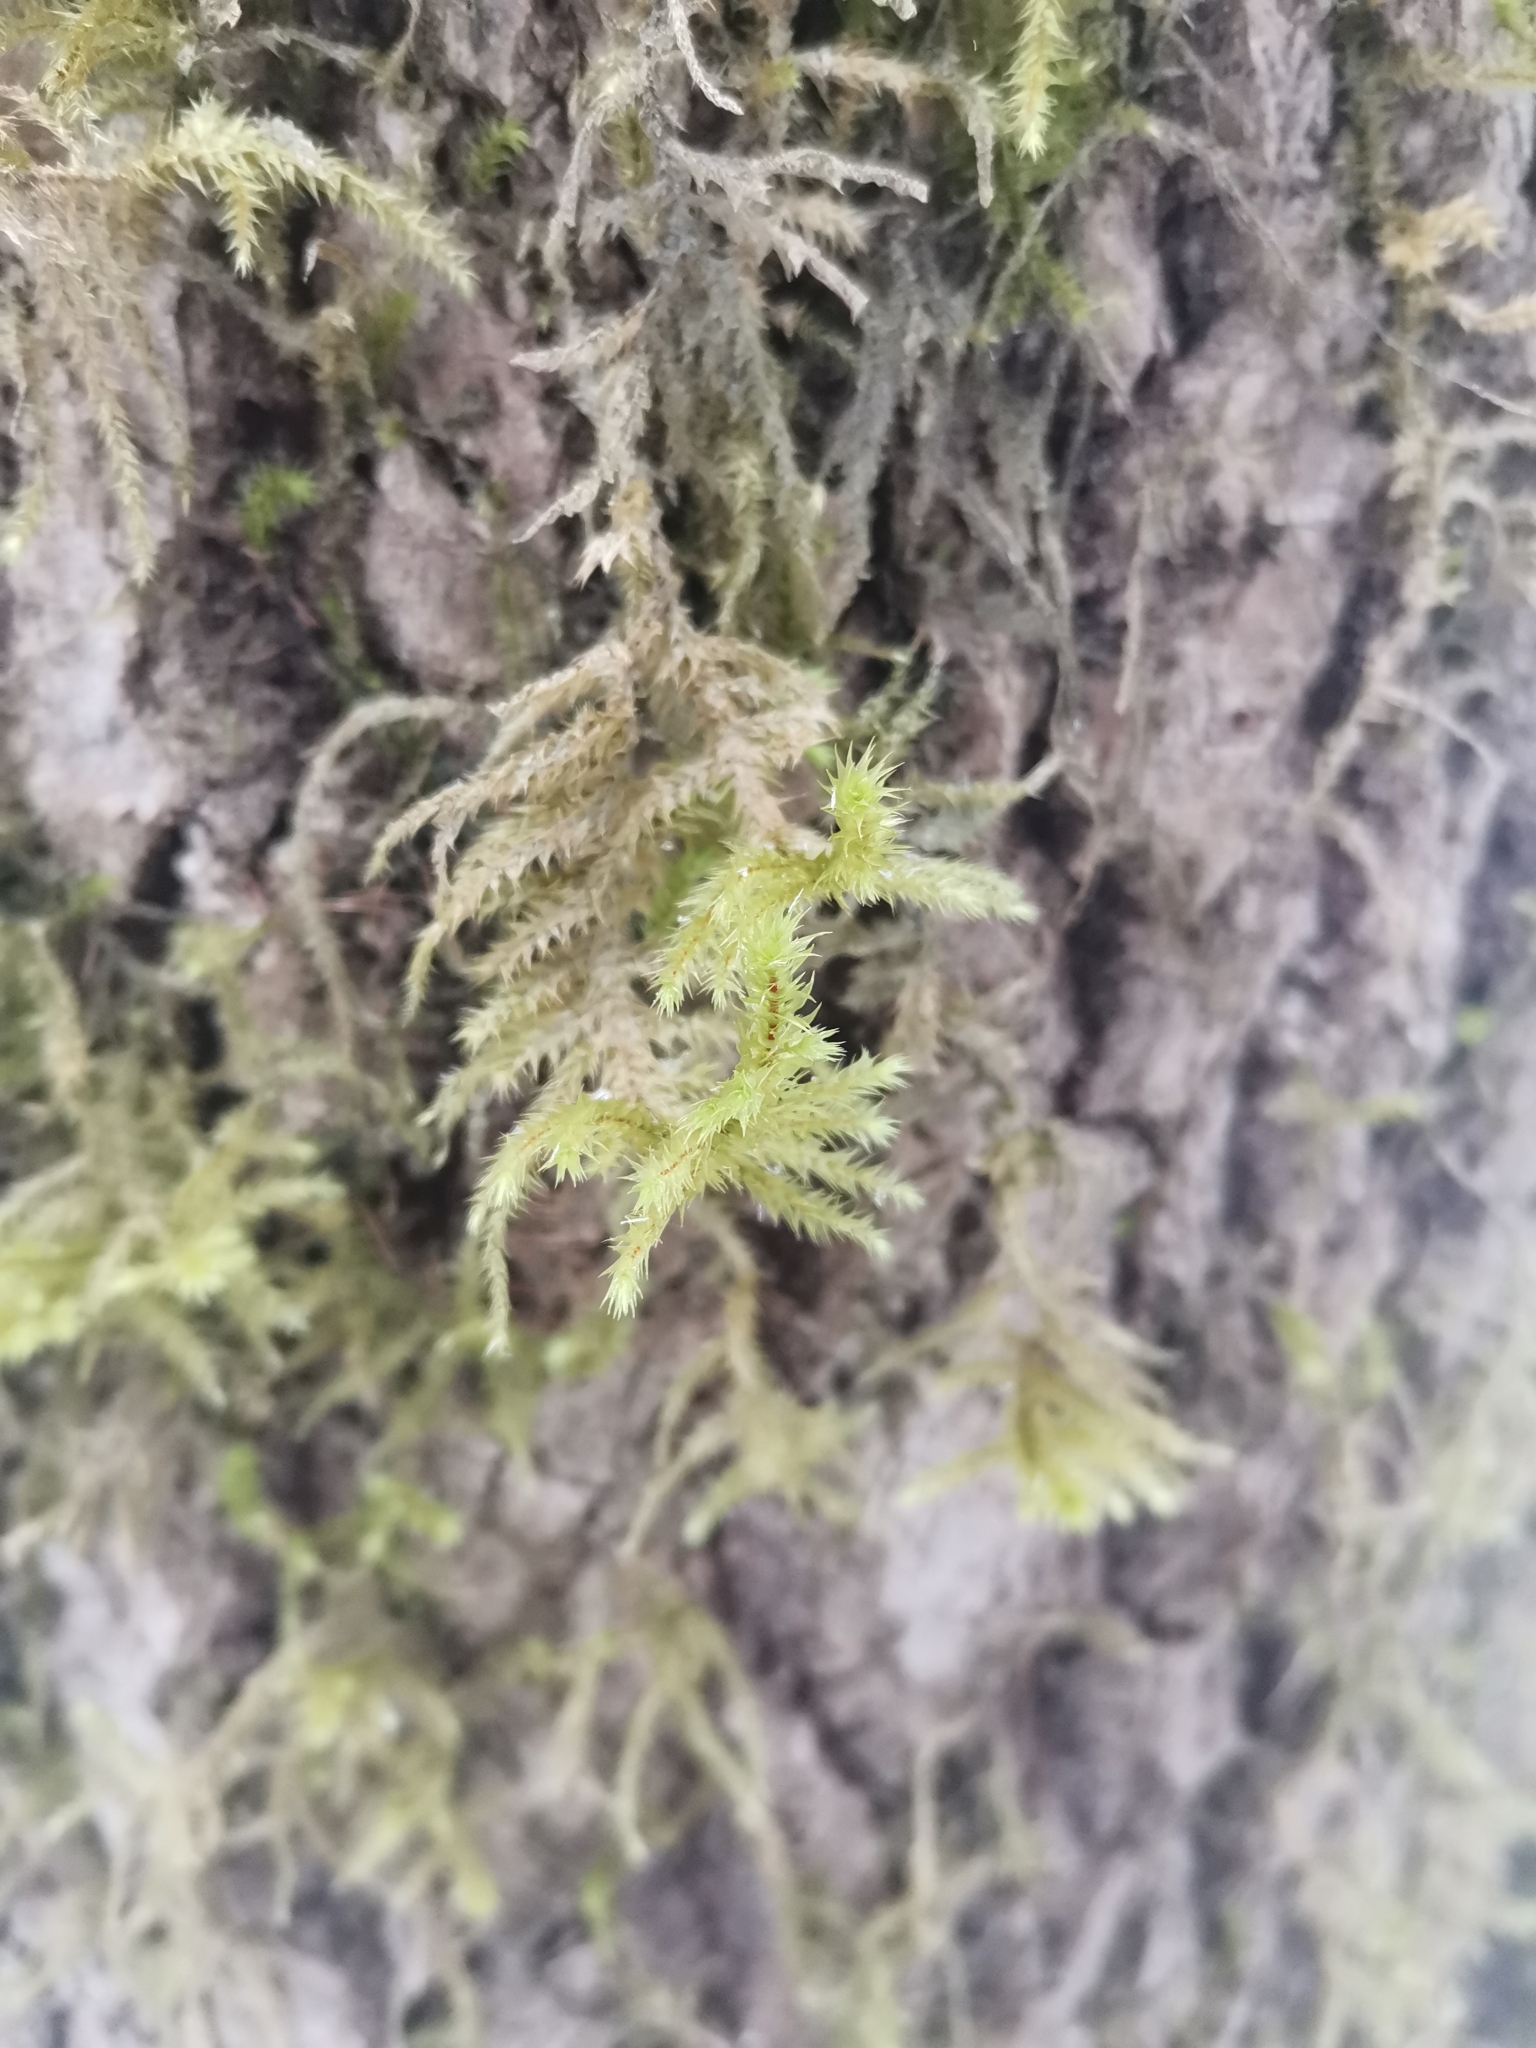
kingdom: Plantae
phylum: Bryophyta
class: Bryopsida
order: Hypnales
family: Hylocomiaceae
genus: Hylocomiadelphus
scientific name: Hylocomiadelphus triquetrus
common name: Rough goose neck moss
